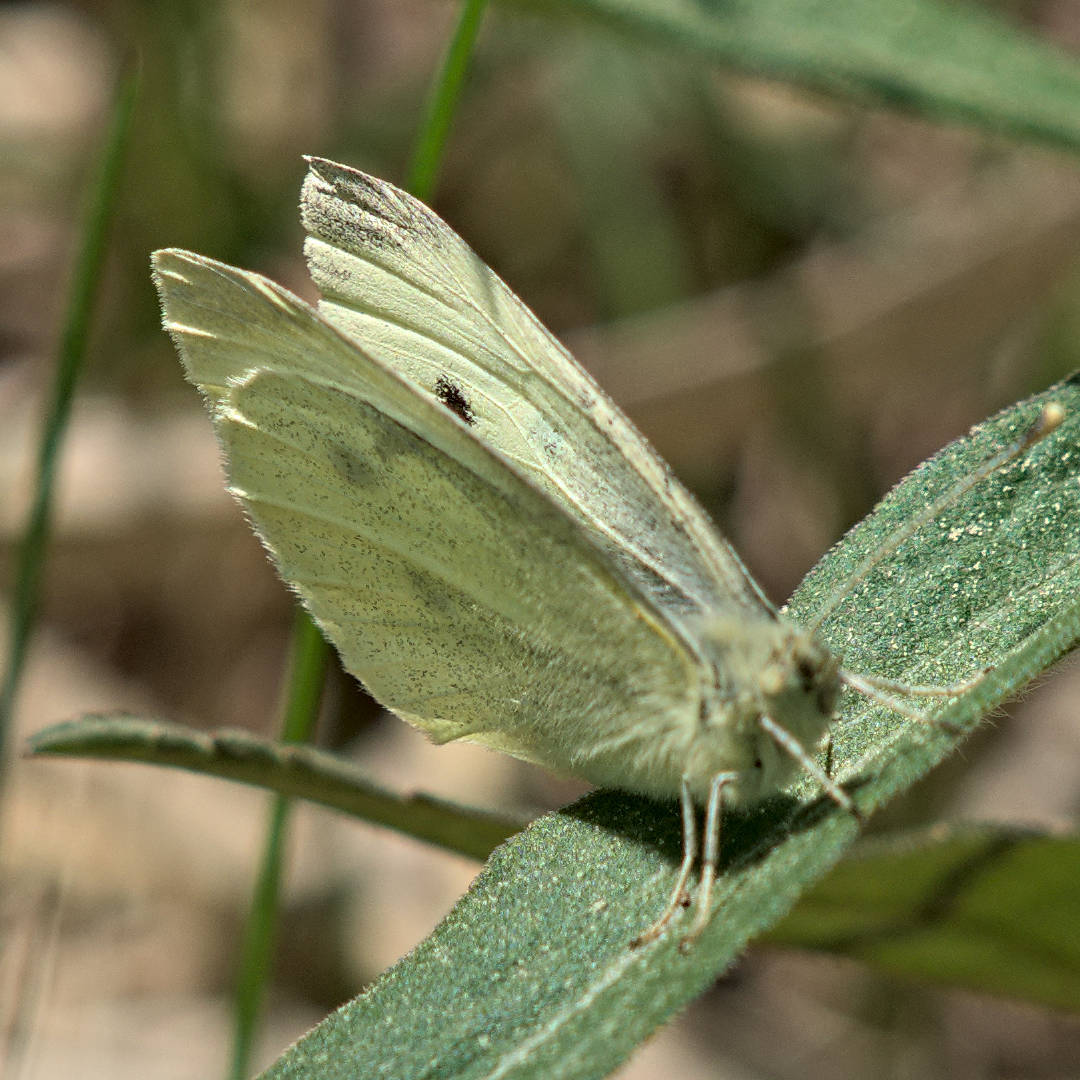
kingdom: Animalia
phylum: Arthropoda
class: Insecta
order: Lepidoptera
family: Pieridae
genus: Pieris
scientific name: Pieris rapae
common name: Small white
